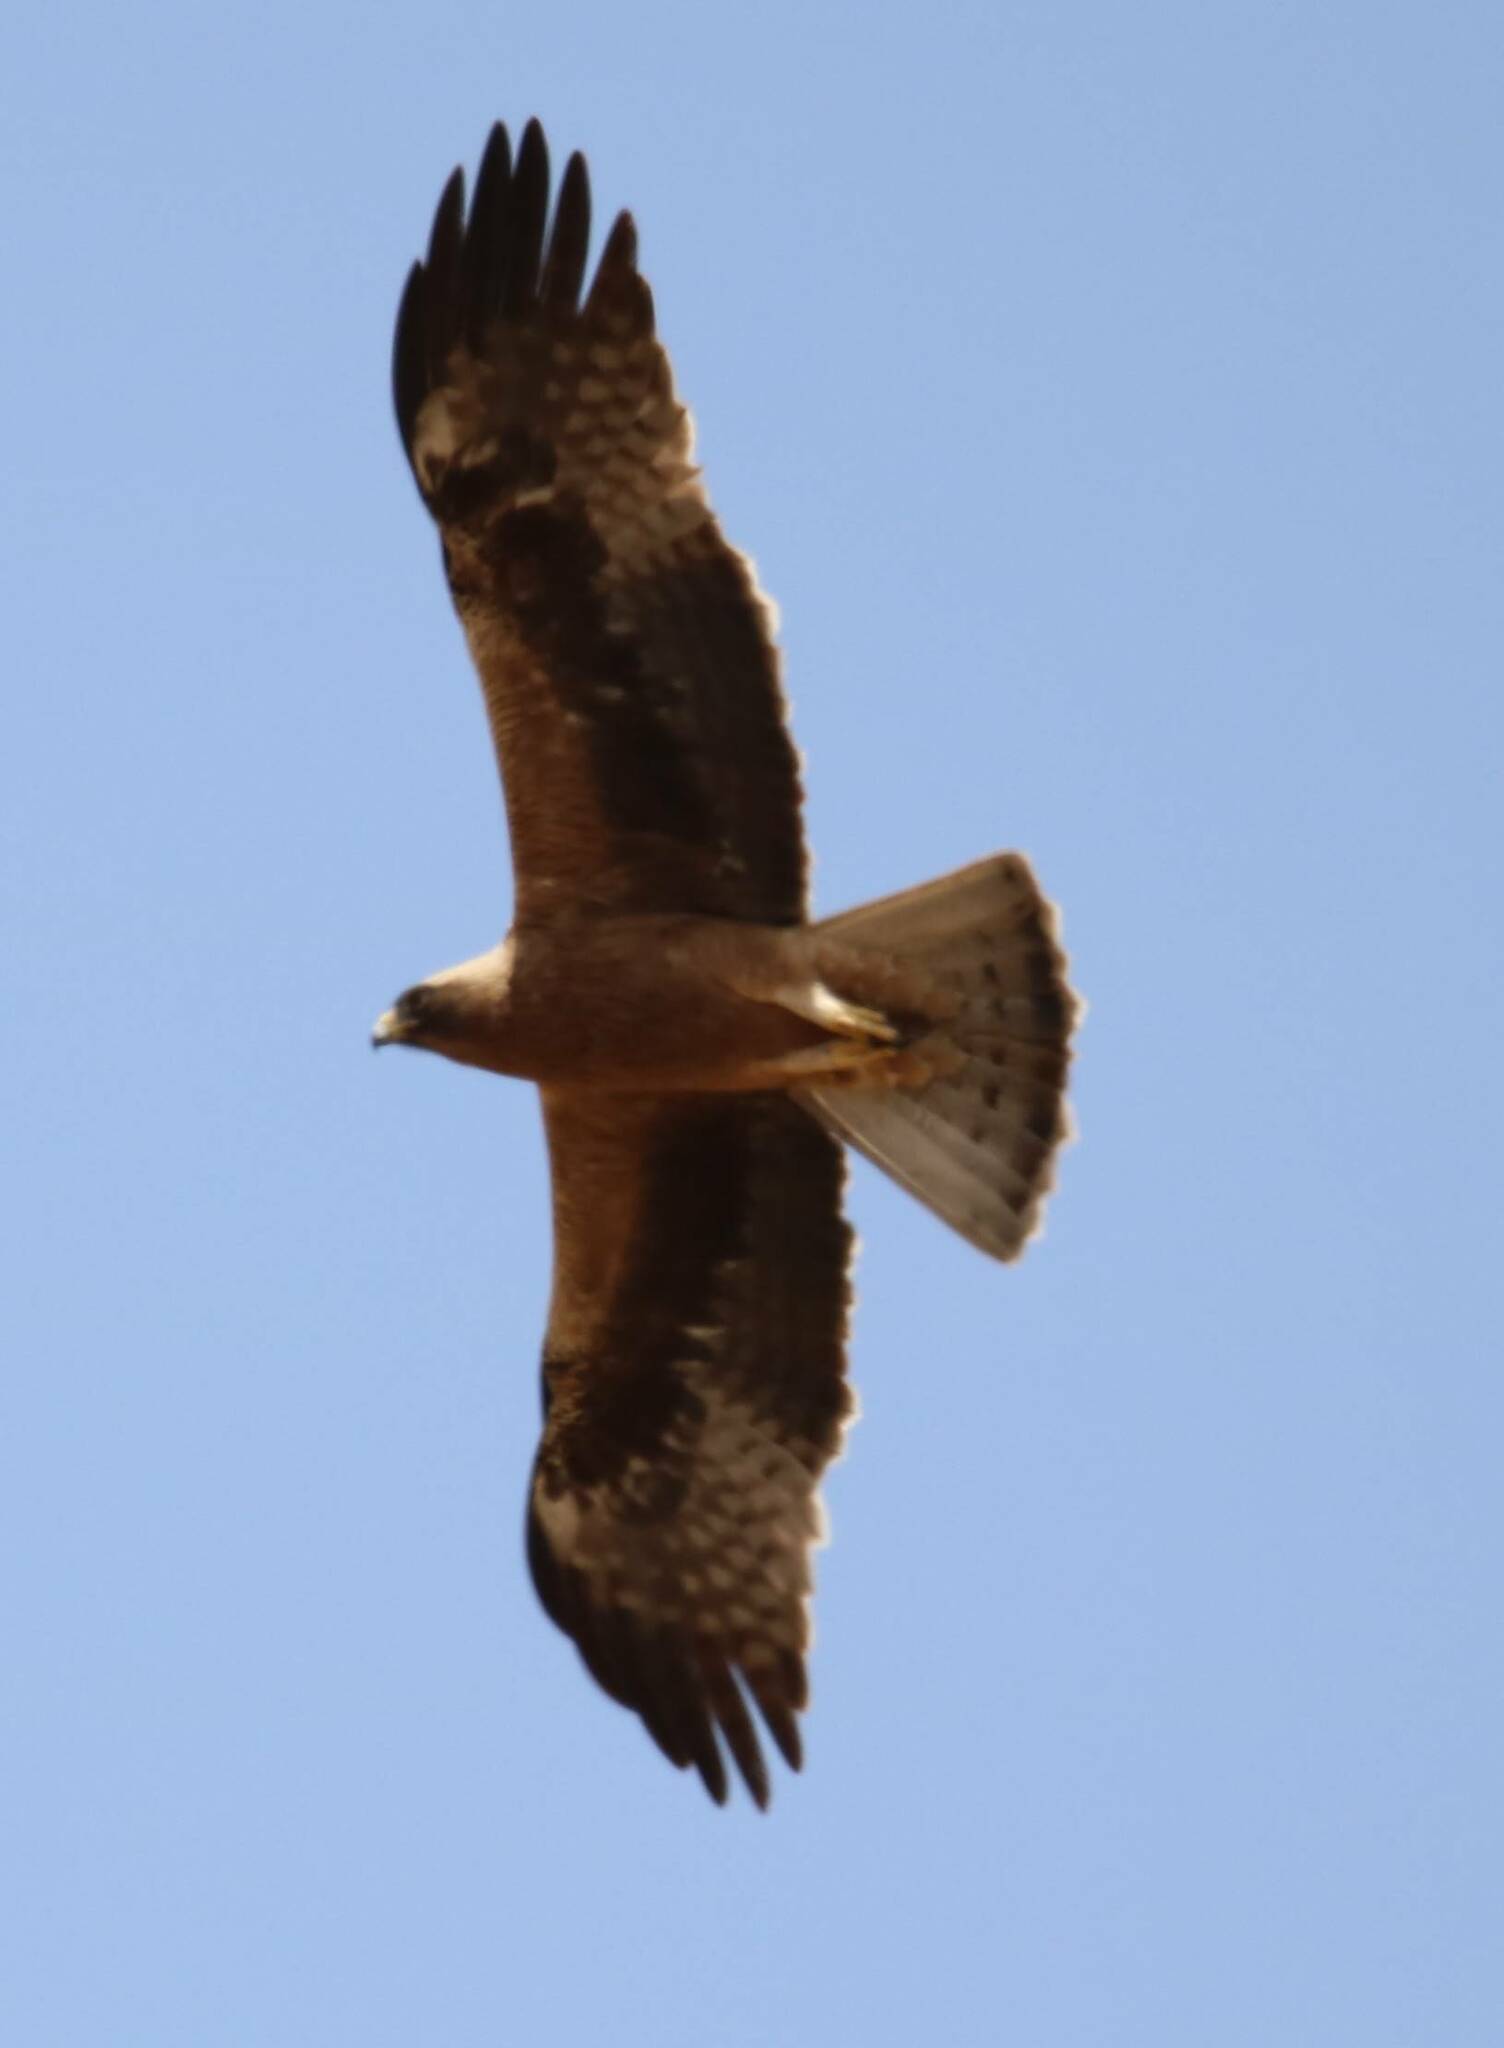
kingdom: Animalia
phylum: Chordata
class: Aves
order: Accipitriformes
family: Accipitridae
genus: Hieraaetus
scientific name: Hieraaetus pennatus
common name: Booted eagle
